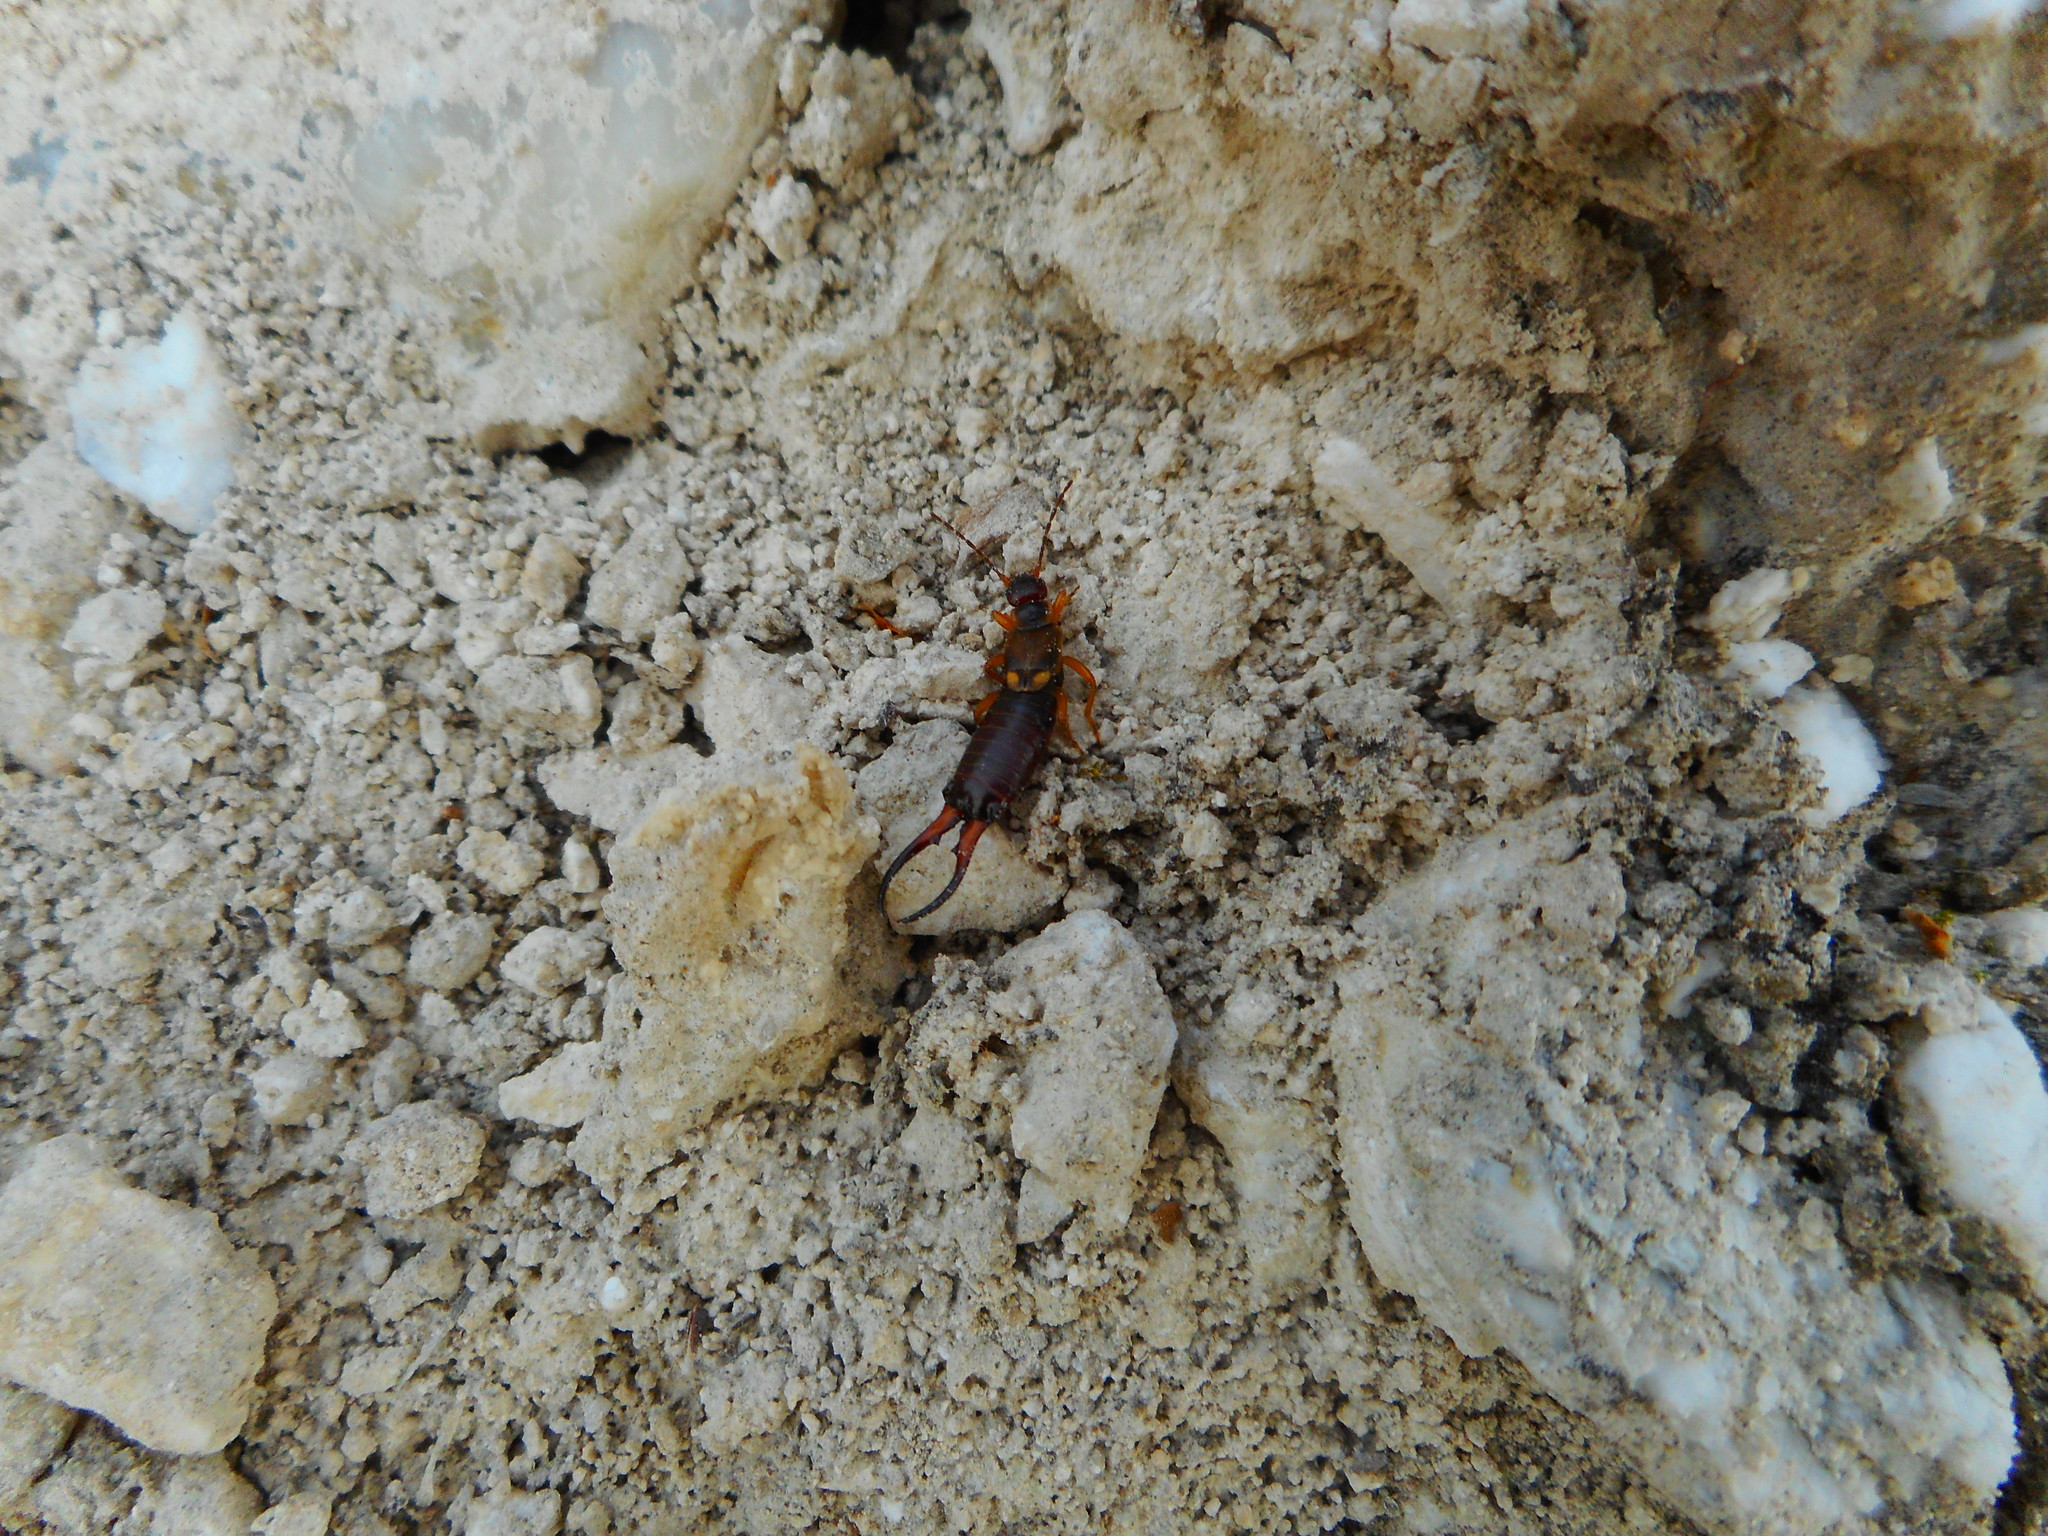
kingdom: Animalia
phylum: Arthropoda
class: Insecta
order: Dermaptera
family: Forficulidae
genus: Forficula
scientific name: Forficula
